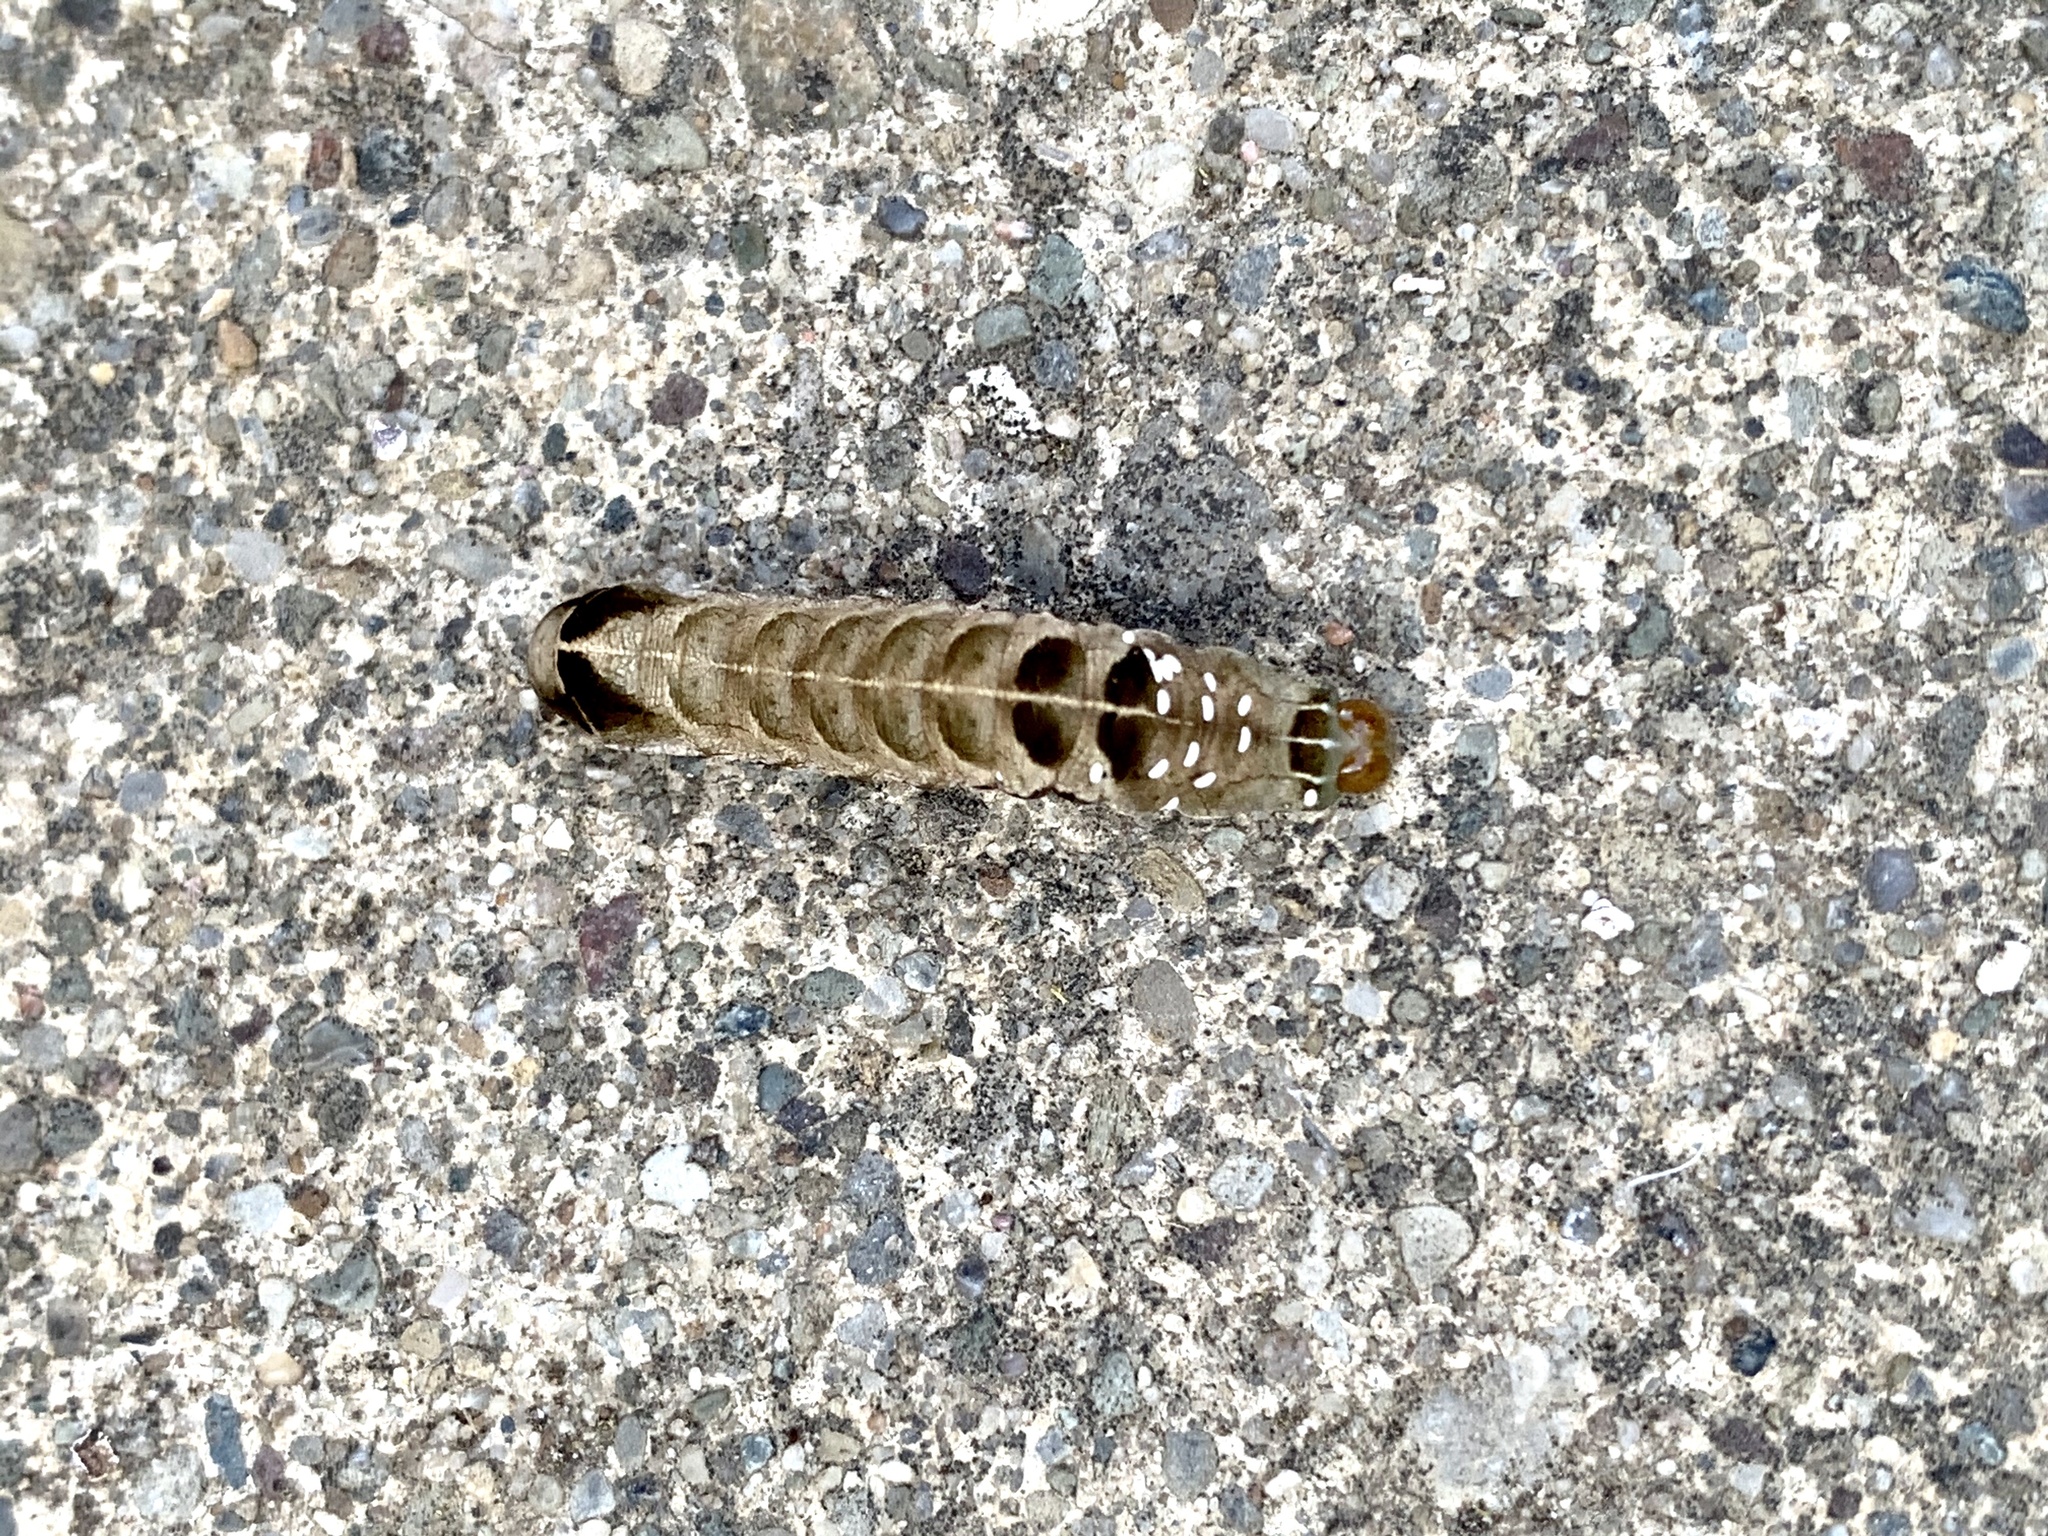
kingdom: Animalia
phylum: Arthropoda
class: Insecta
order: Lepidoptera
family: Noctuidae
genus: Melanchra
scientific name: Melanchra adjuncta
